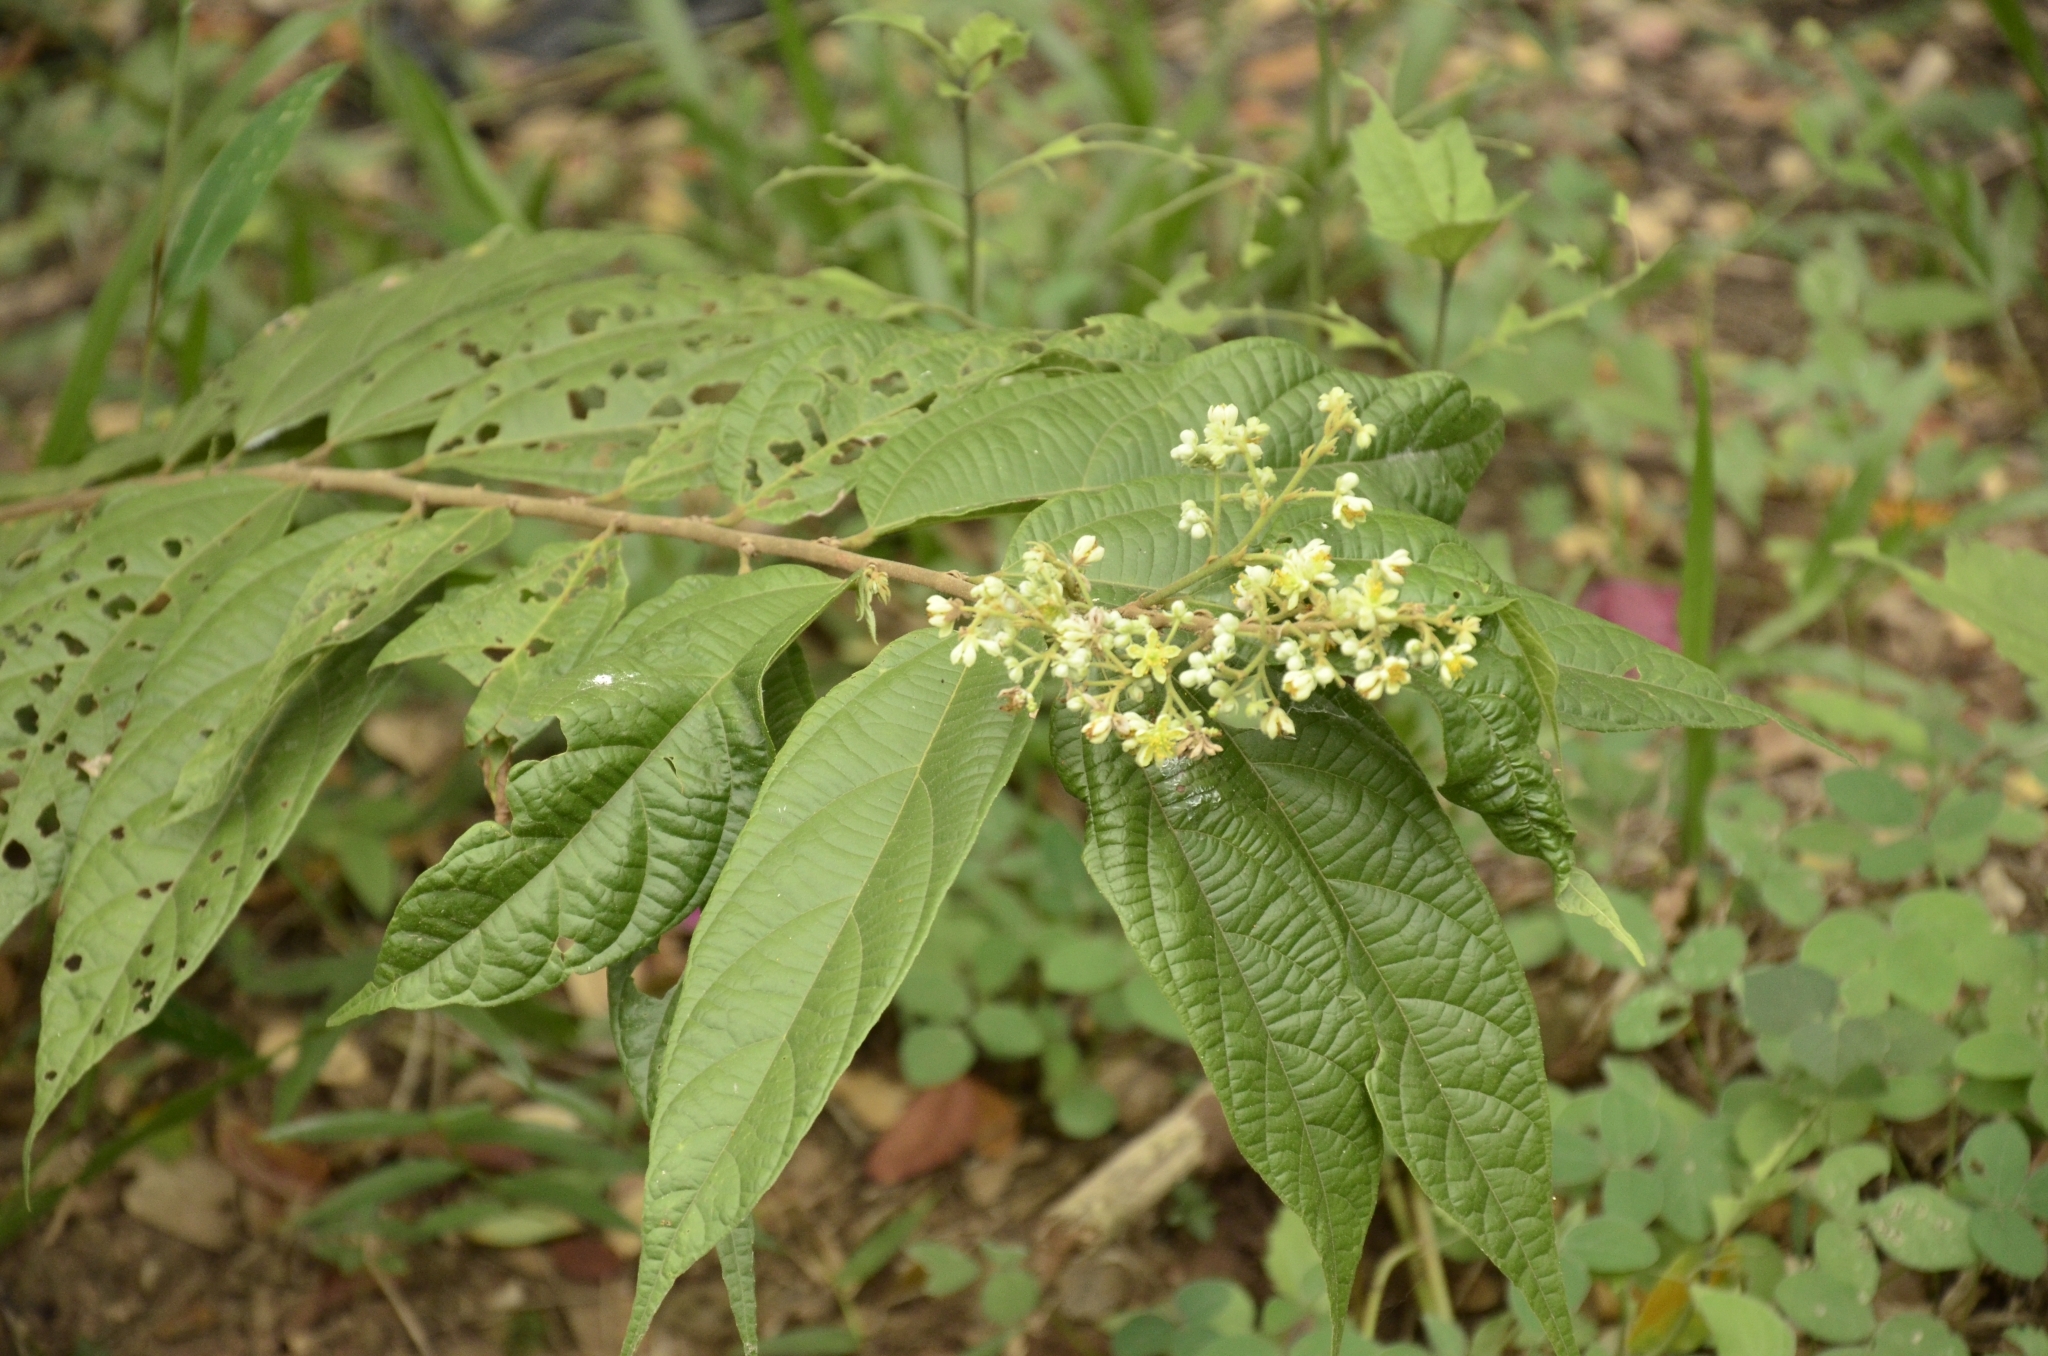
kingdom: Plantae
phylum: Tracheophyta
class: Magnoliopsida
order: Malvales
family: Malvaceae
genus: Microcos
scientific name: Microcos paniculata
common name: Microcos
